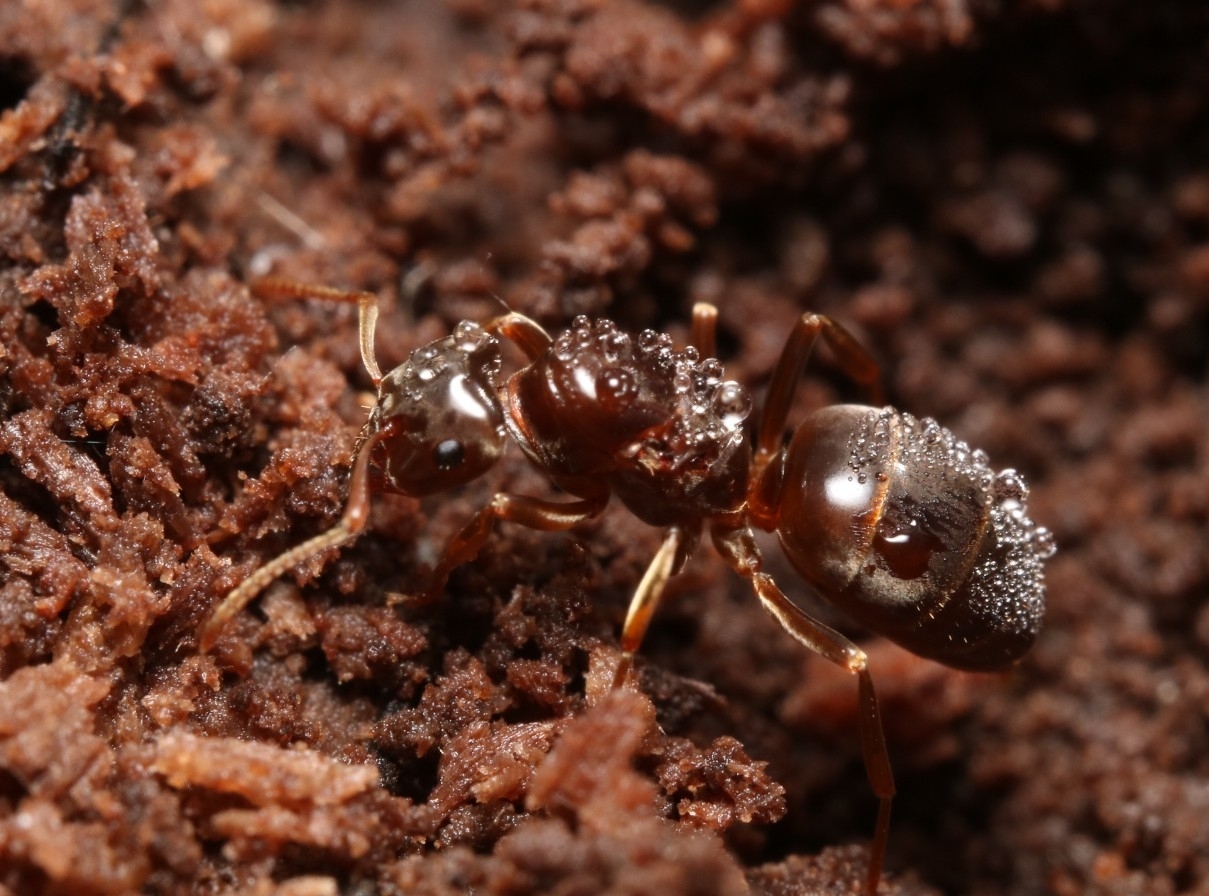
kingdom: Animalia
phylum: Arthropoda
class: Insecta
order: Hymenoptera
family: Formicidae
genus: Lasius
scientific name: Lasius aphidicola
